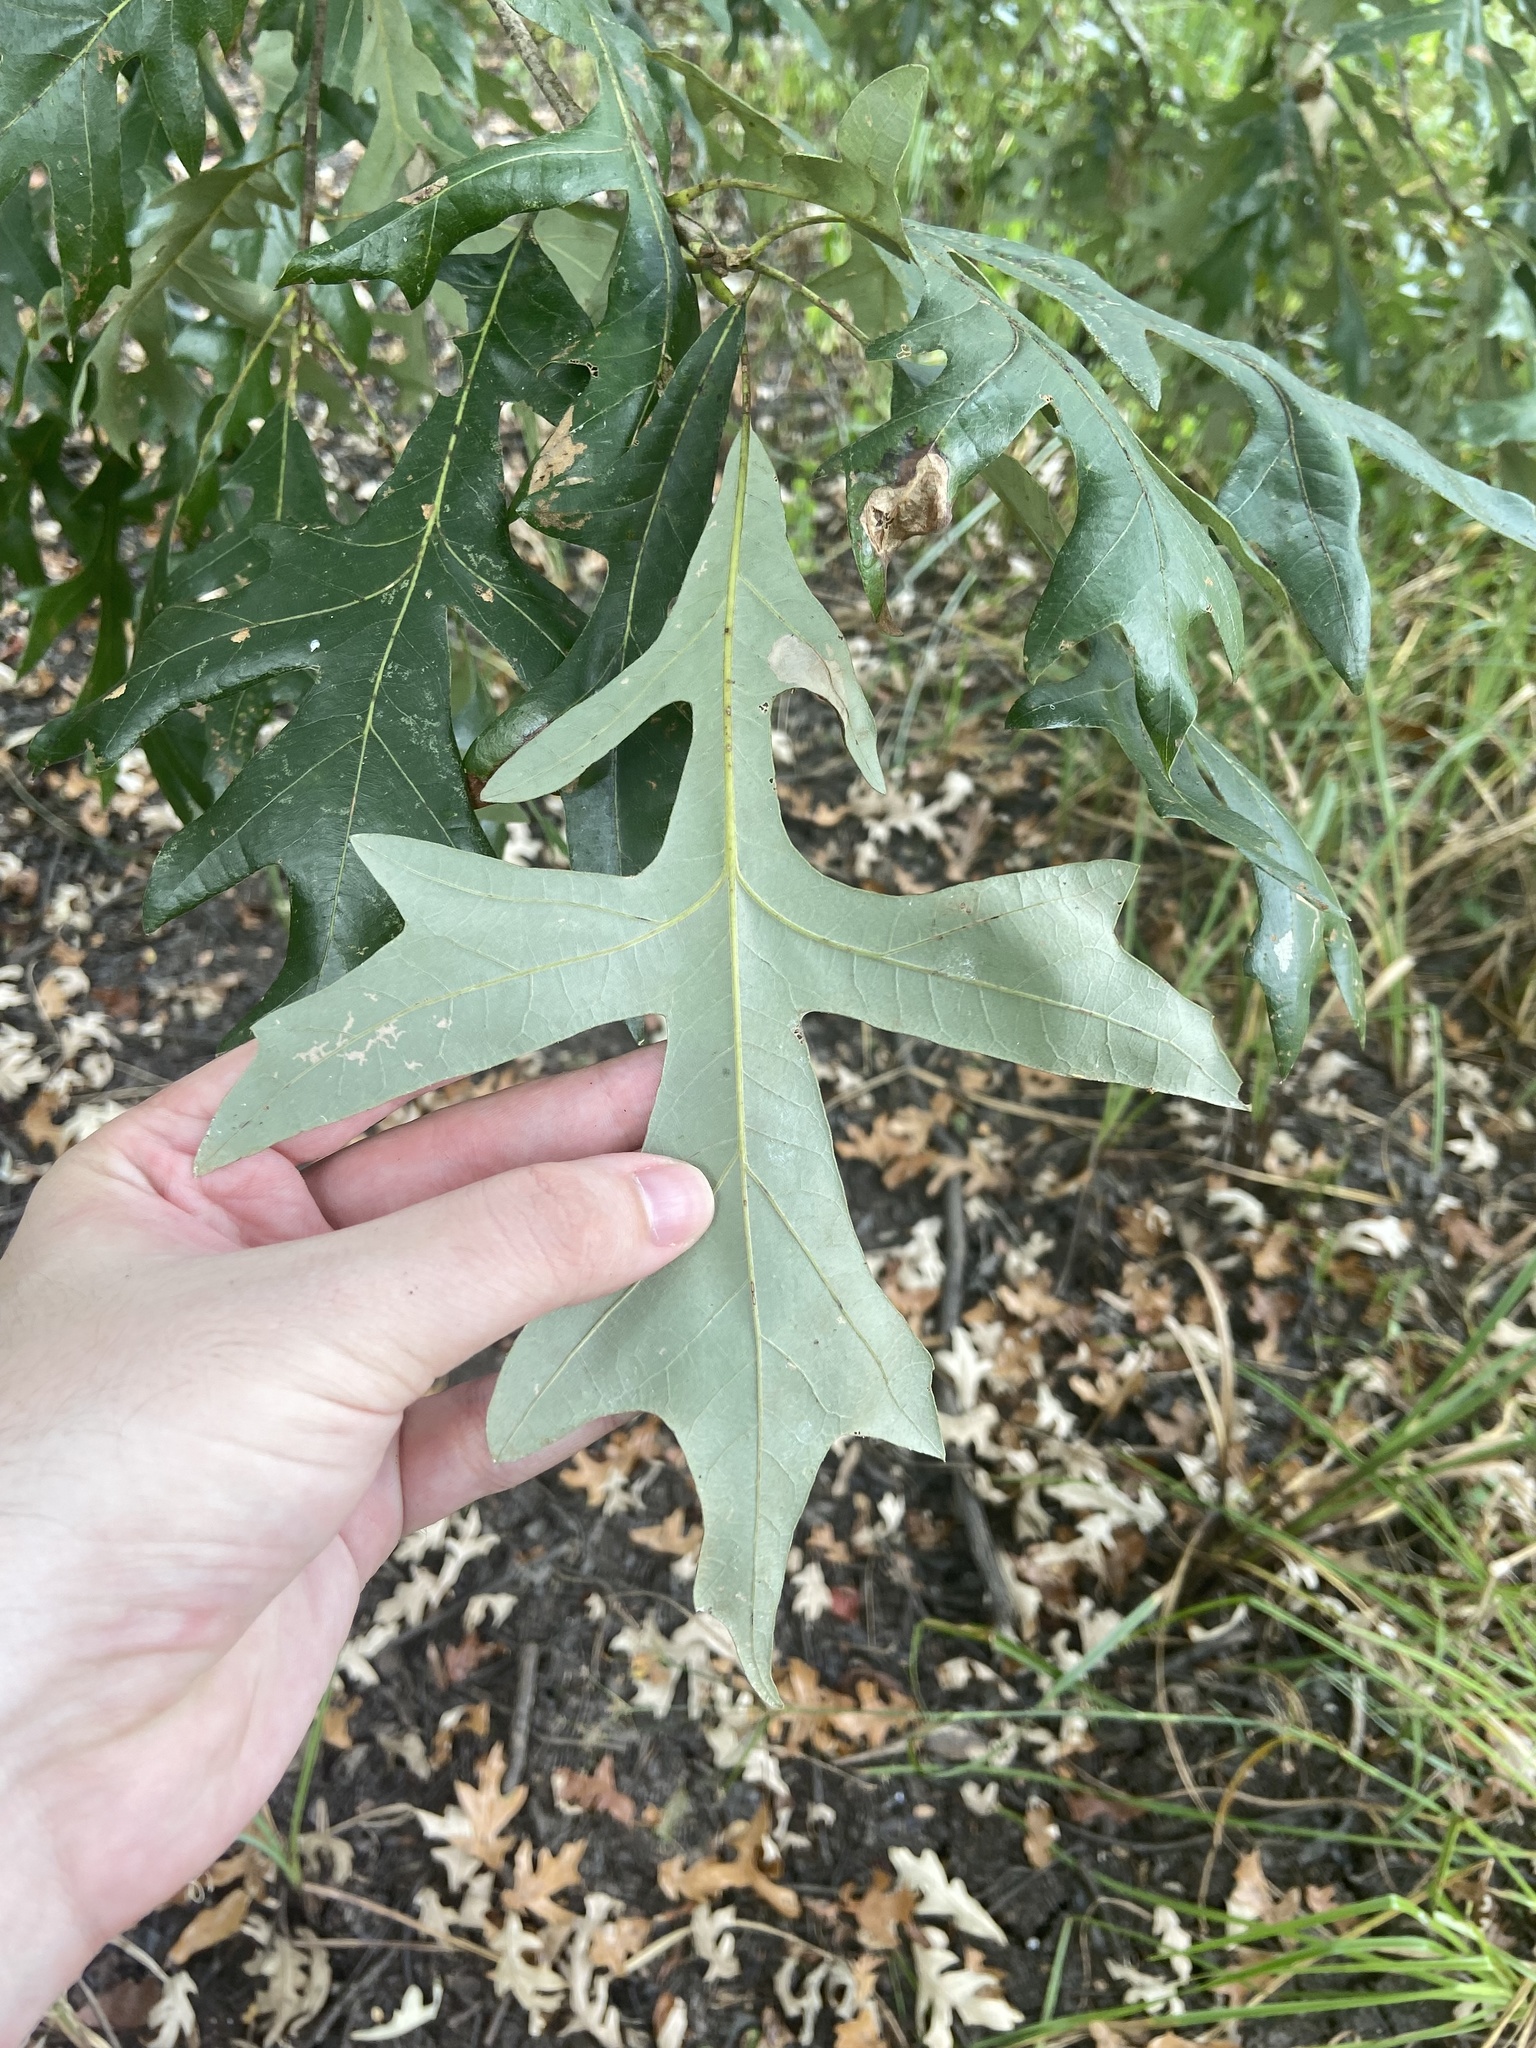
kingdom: Plantae
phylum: Tracheophyta
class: Magnoliopsida
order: Fagales
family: Fagaceae
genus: Quercus
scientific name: Quercus lyrata
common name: Overcup oak
